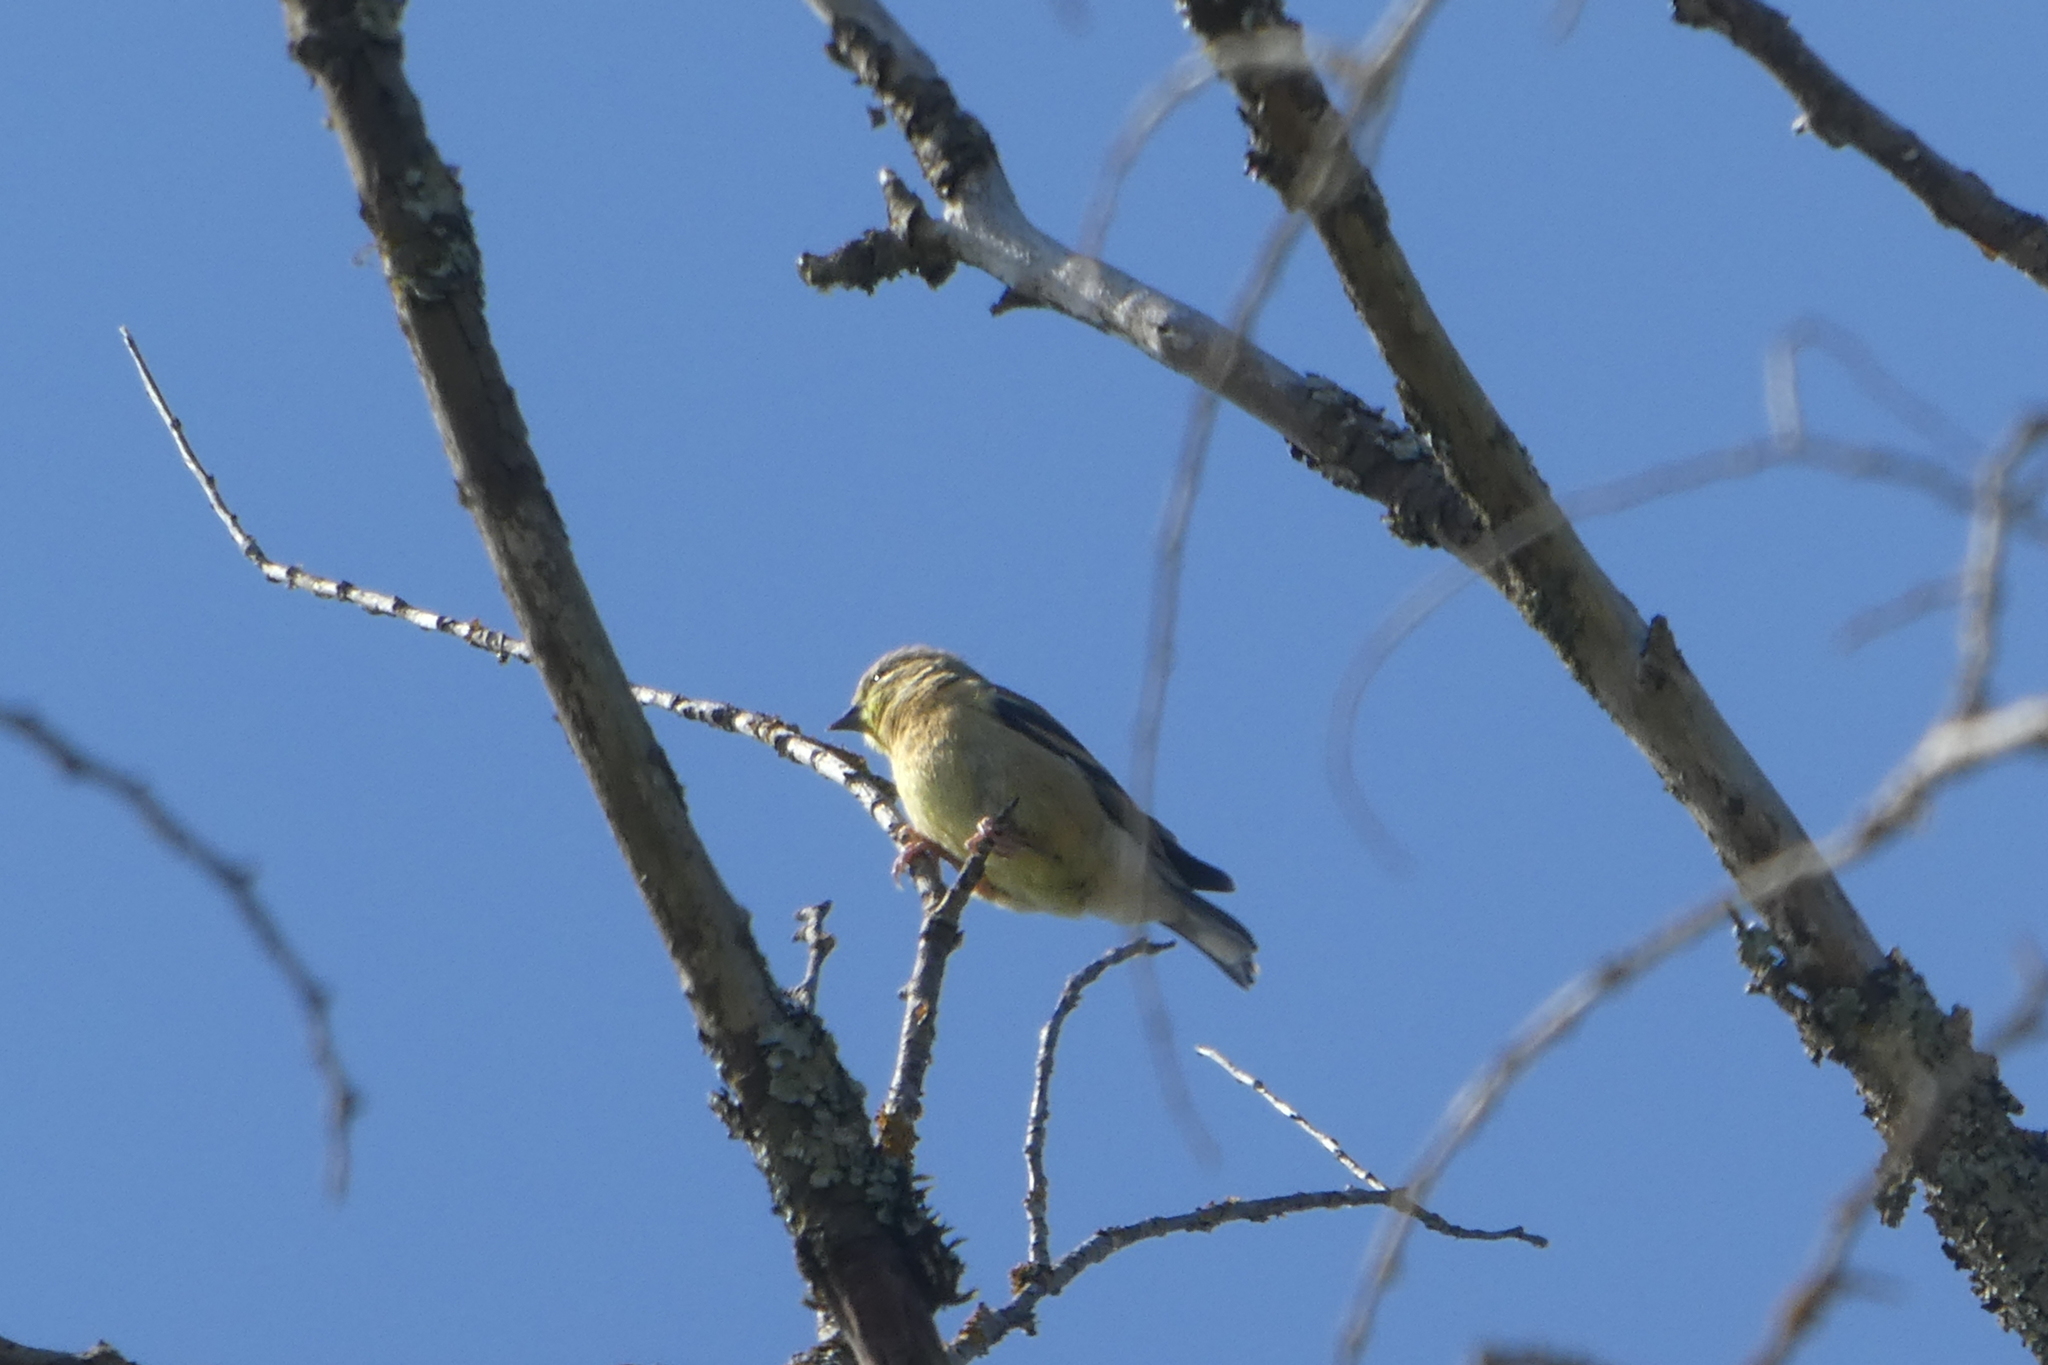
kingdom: Animalia
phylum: Chordata
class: Aves
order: Passeriformes
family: Fringillidae
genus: Spinus
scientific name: Spinus tristis
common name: American goldfinch
